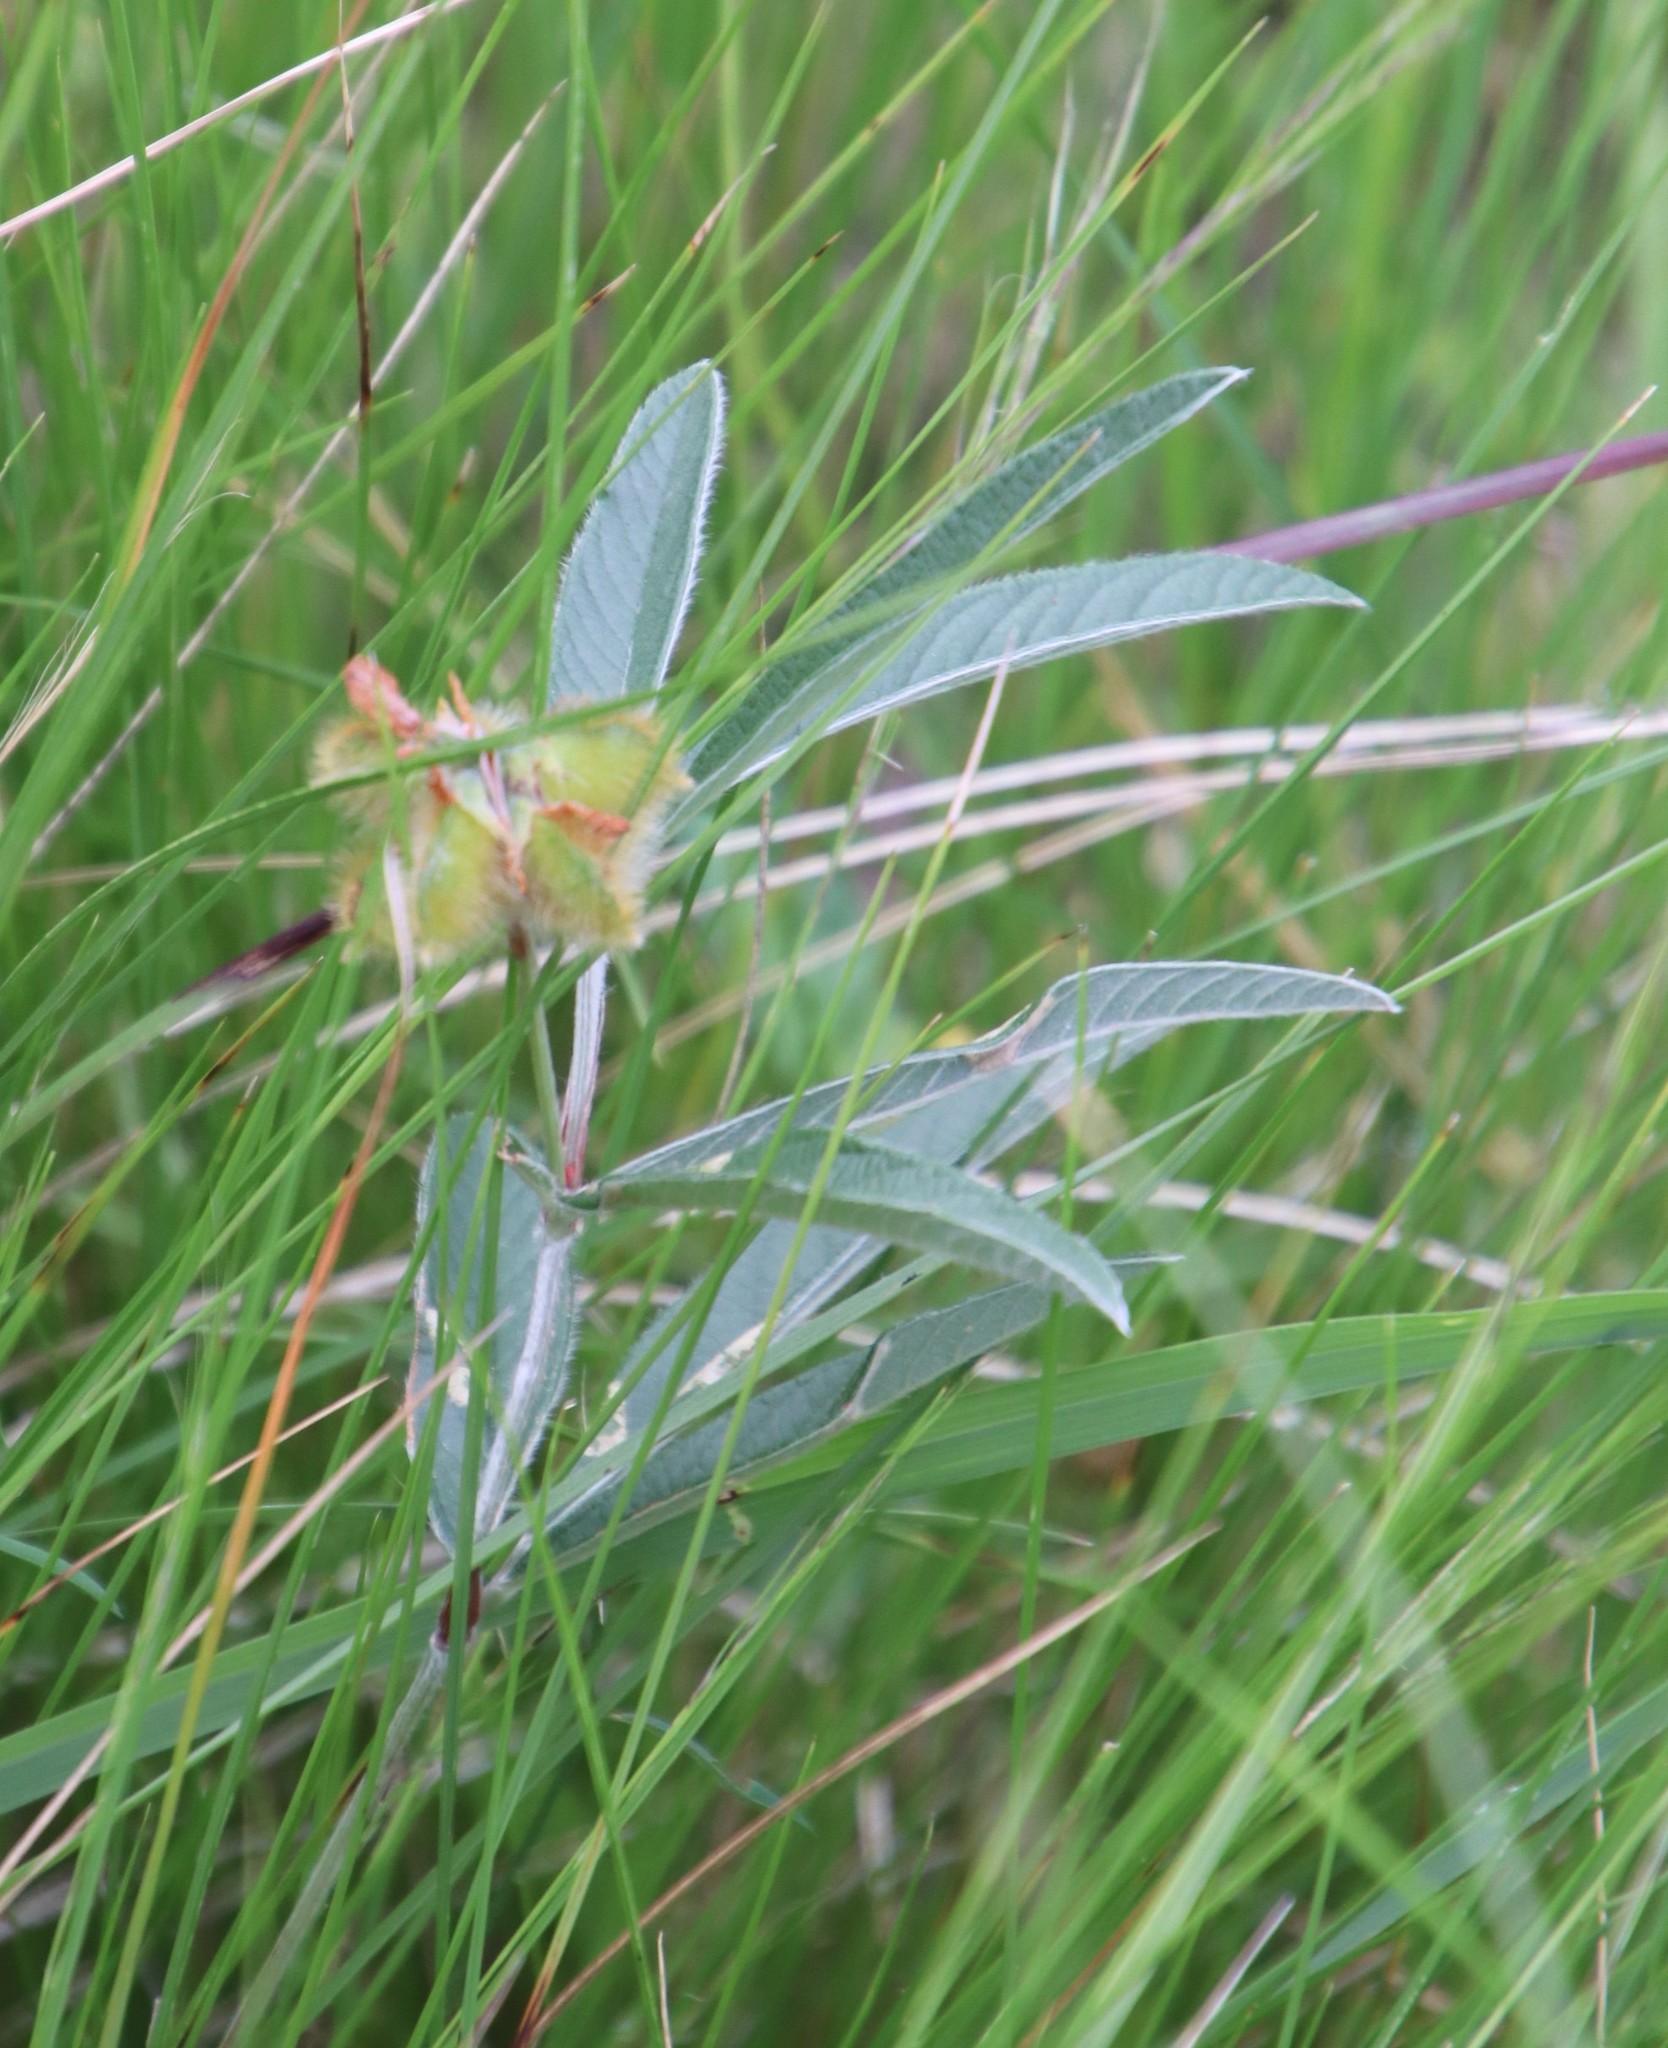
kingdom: Plantae
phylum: Tracheophyta
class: Magnoliopsida
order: Fabales
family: Fabaceae
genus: Eriosema
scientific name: Eriosema salignum
